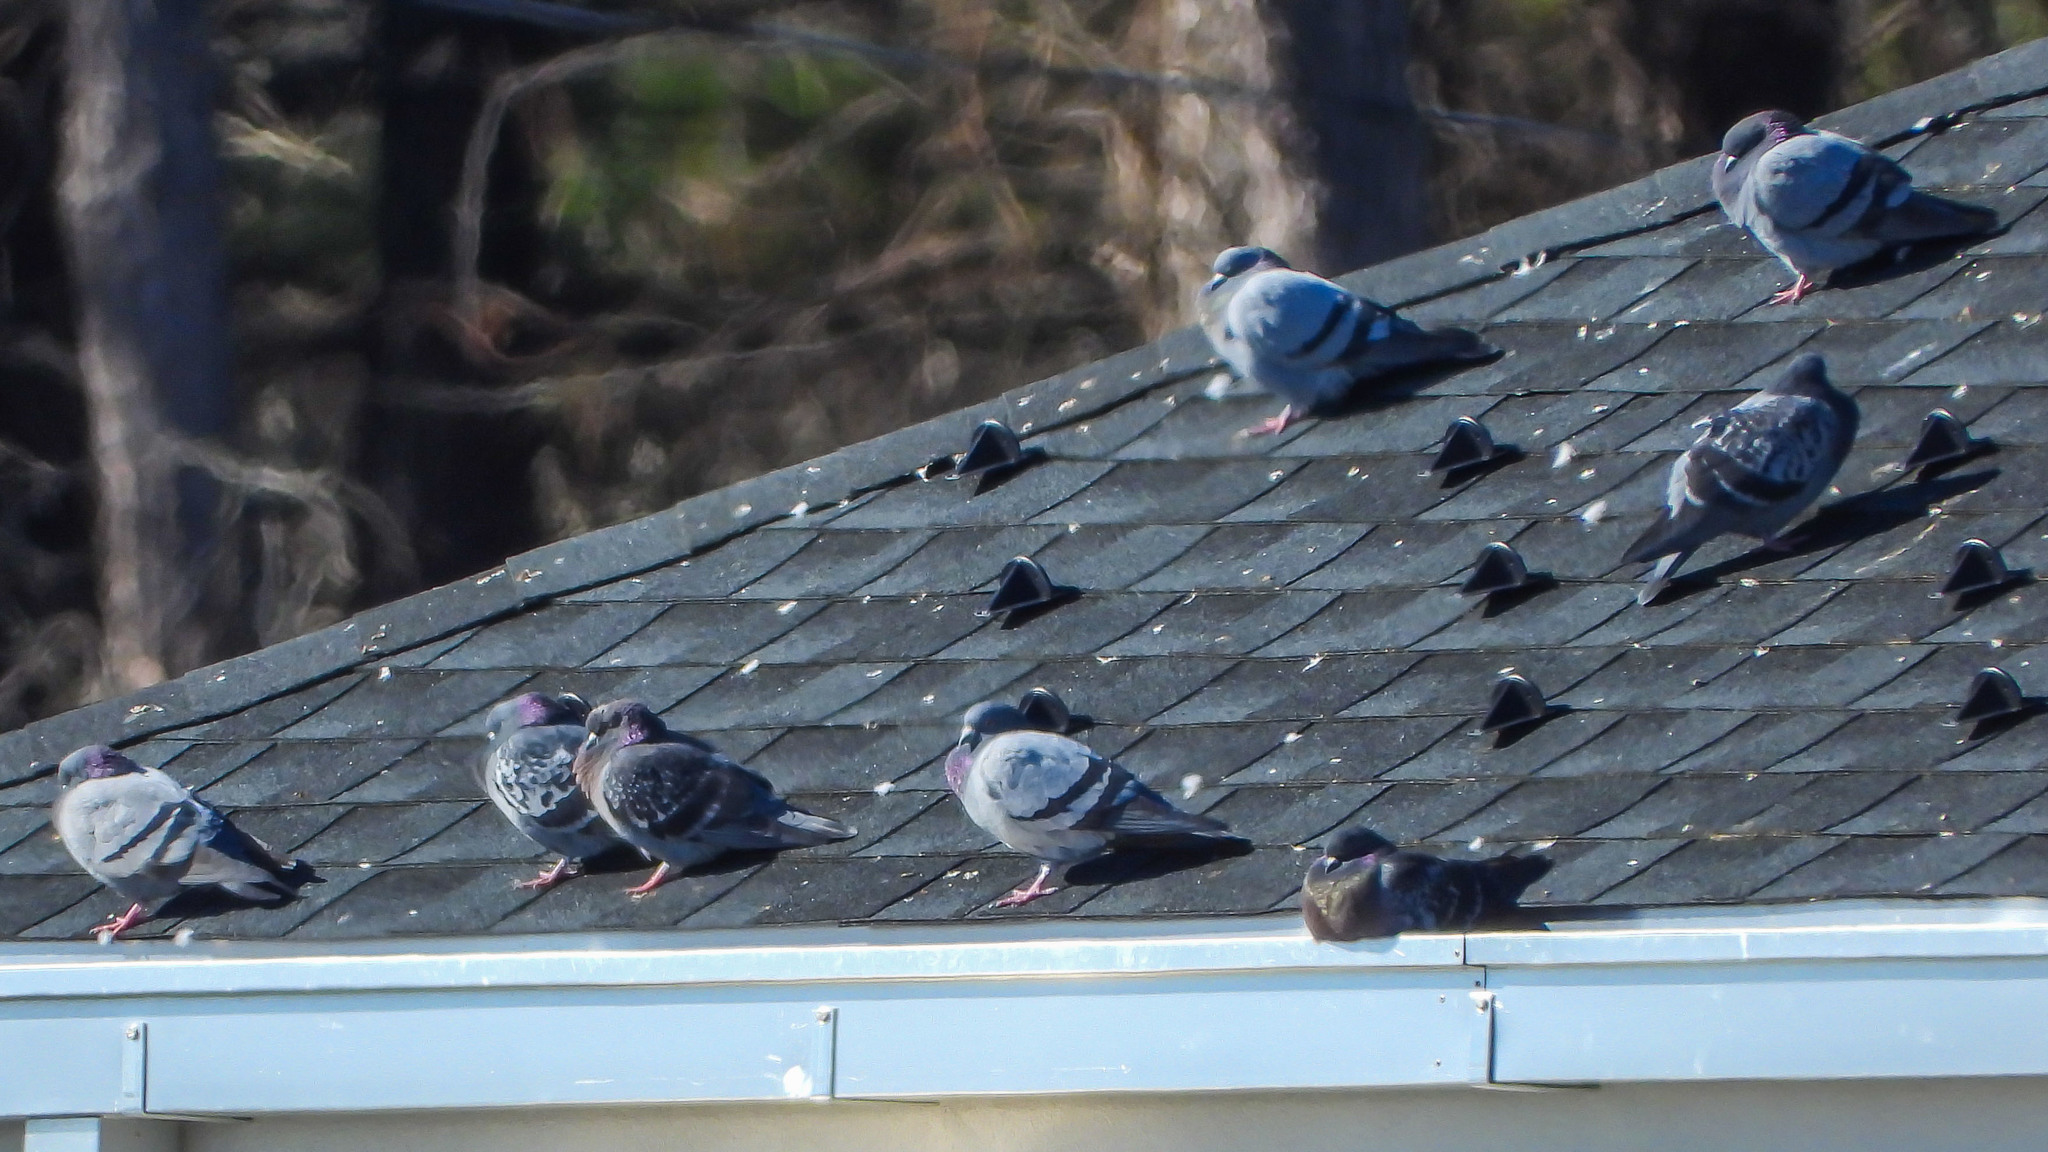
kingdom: Animalia
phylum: Chordata
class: Aves
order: Columbiformes
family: Columbidae
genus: Columba
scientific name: Columba livia
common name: Rock pigeon
